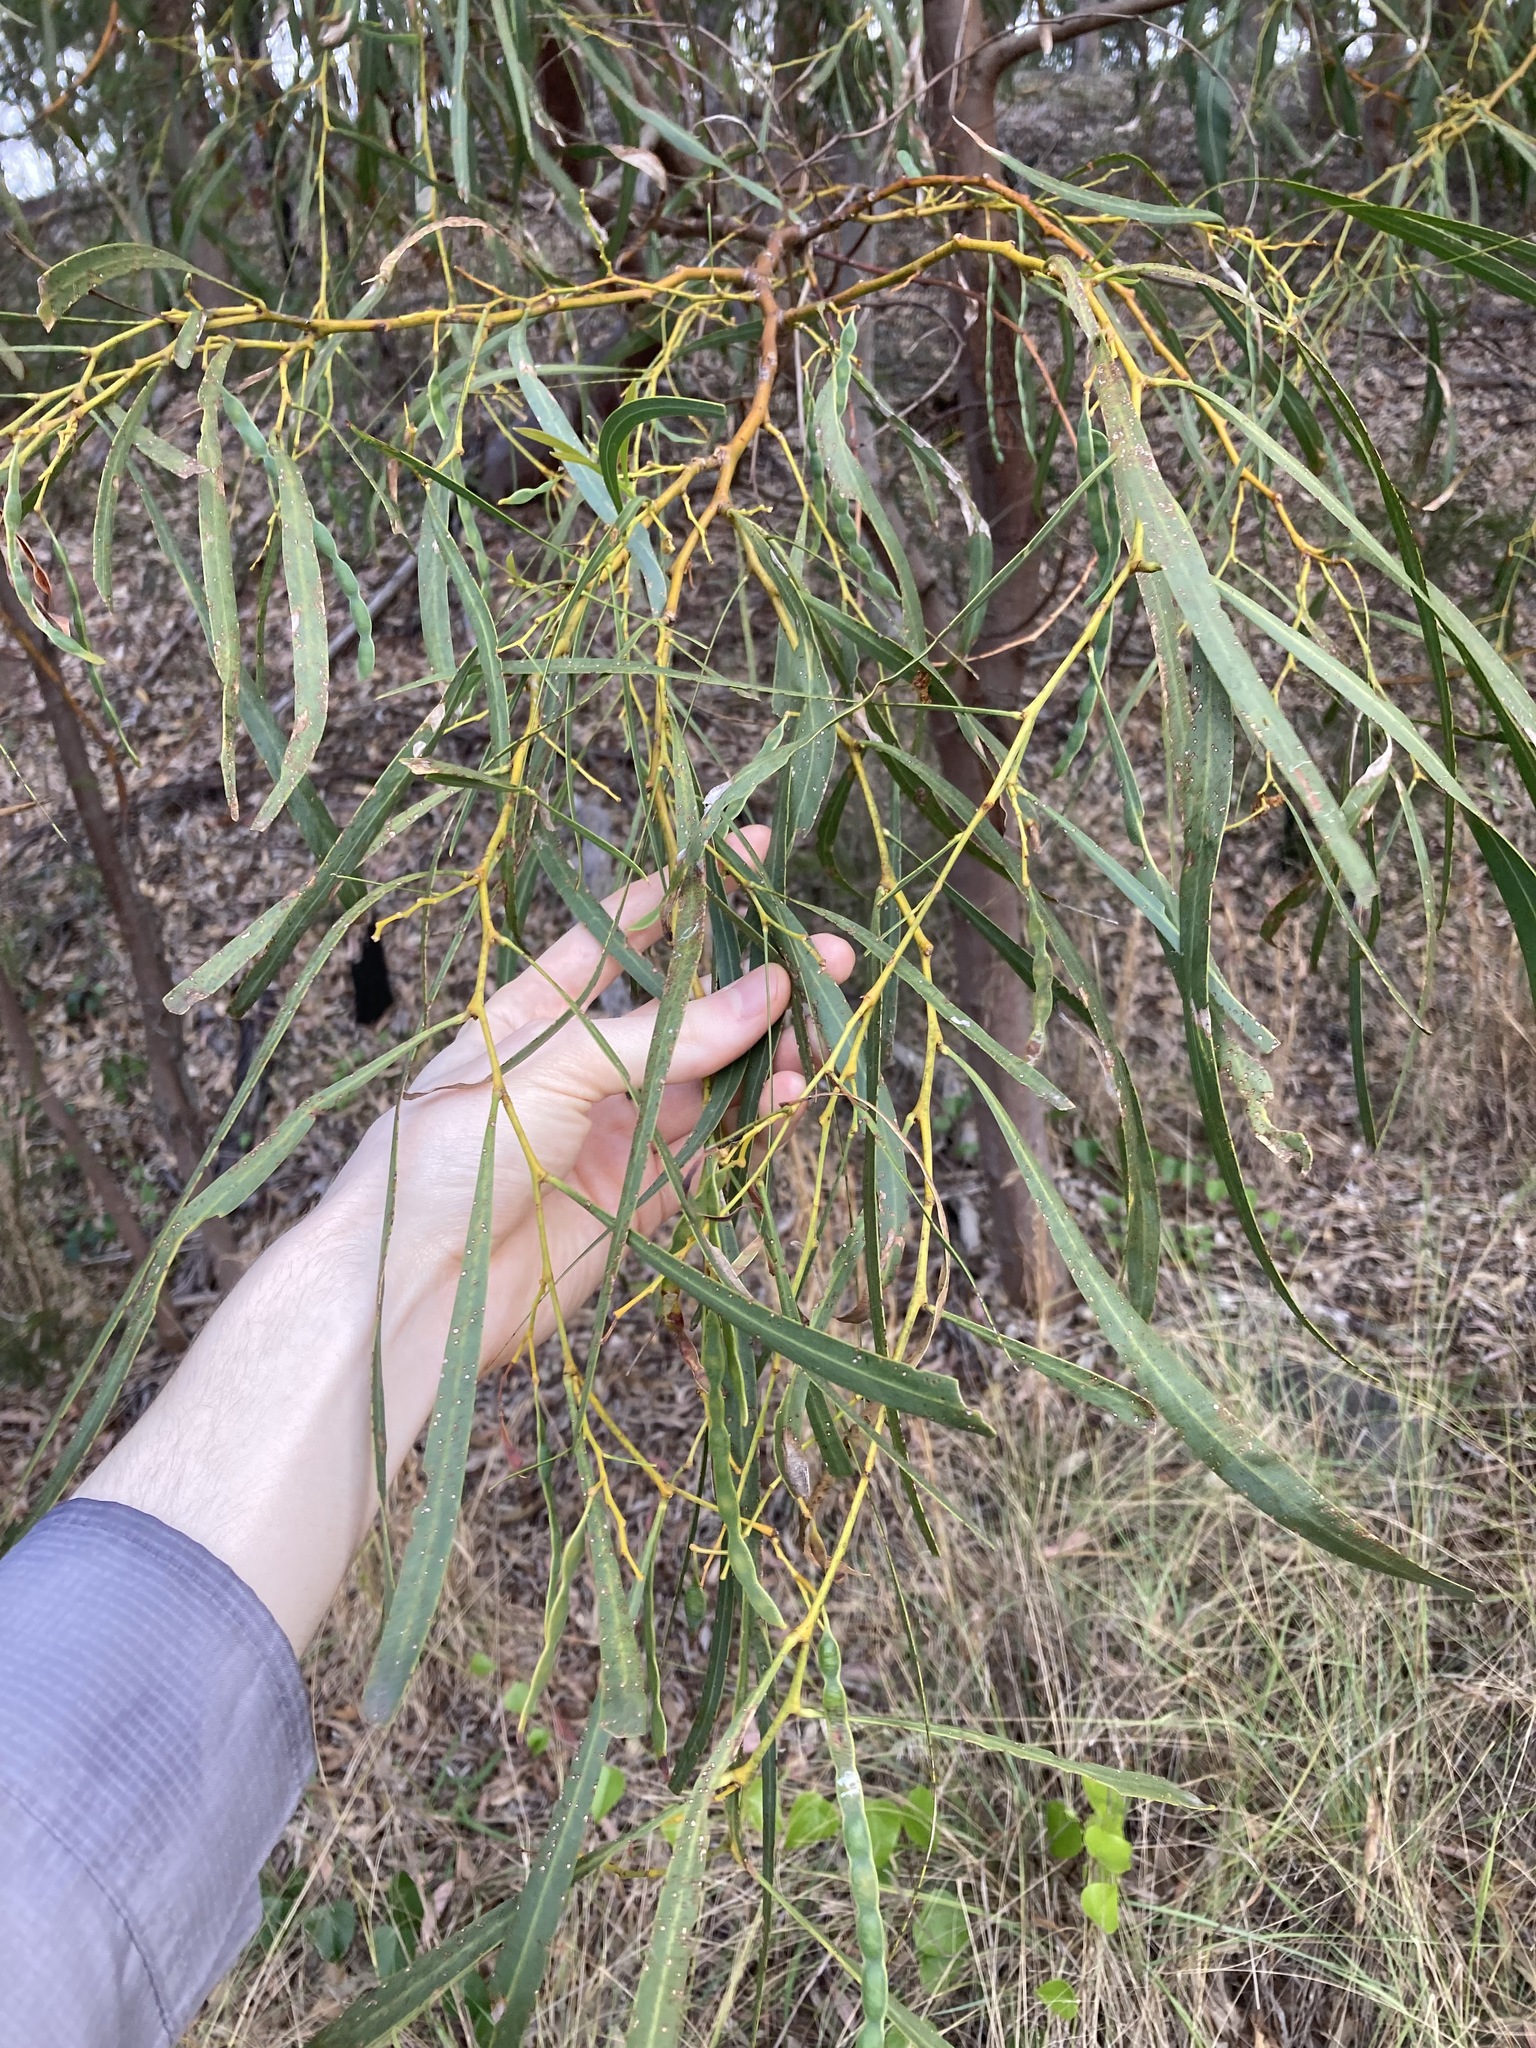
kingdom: Plantae
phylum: Tracheophyta
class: Magnoliopsida
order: Fabales
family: Fabaceae
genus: Acacia
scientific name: Acacia saligna
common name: Orange wattle
